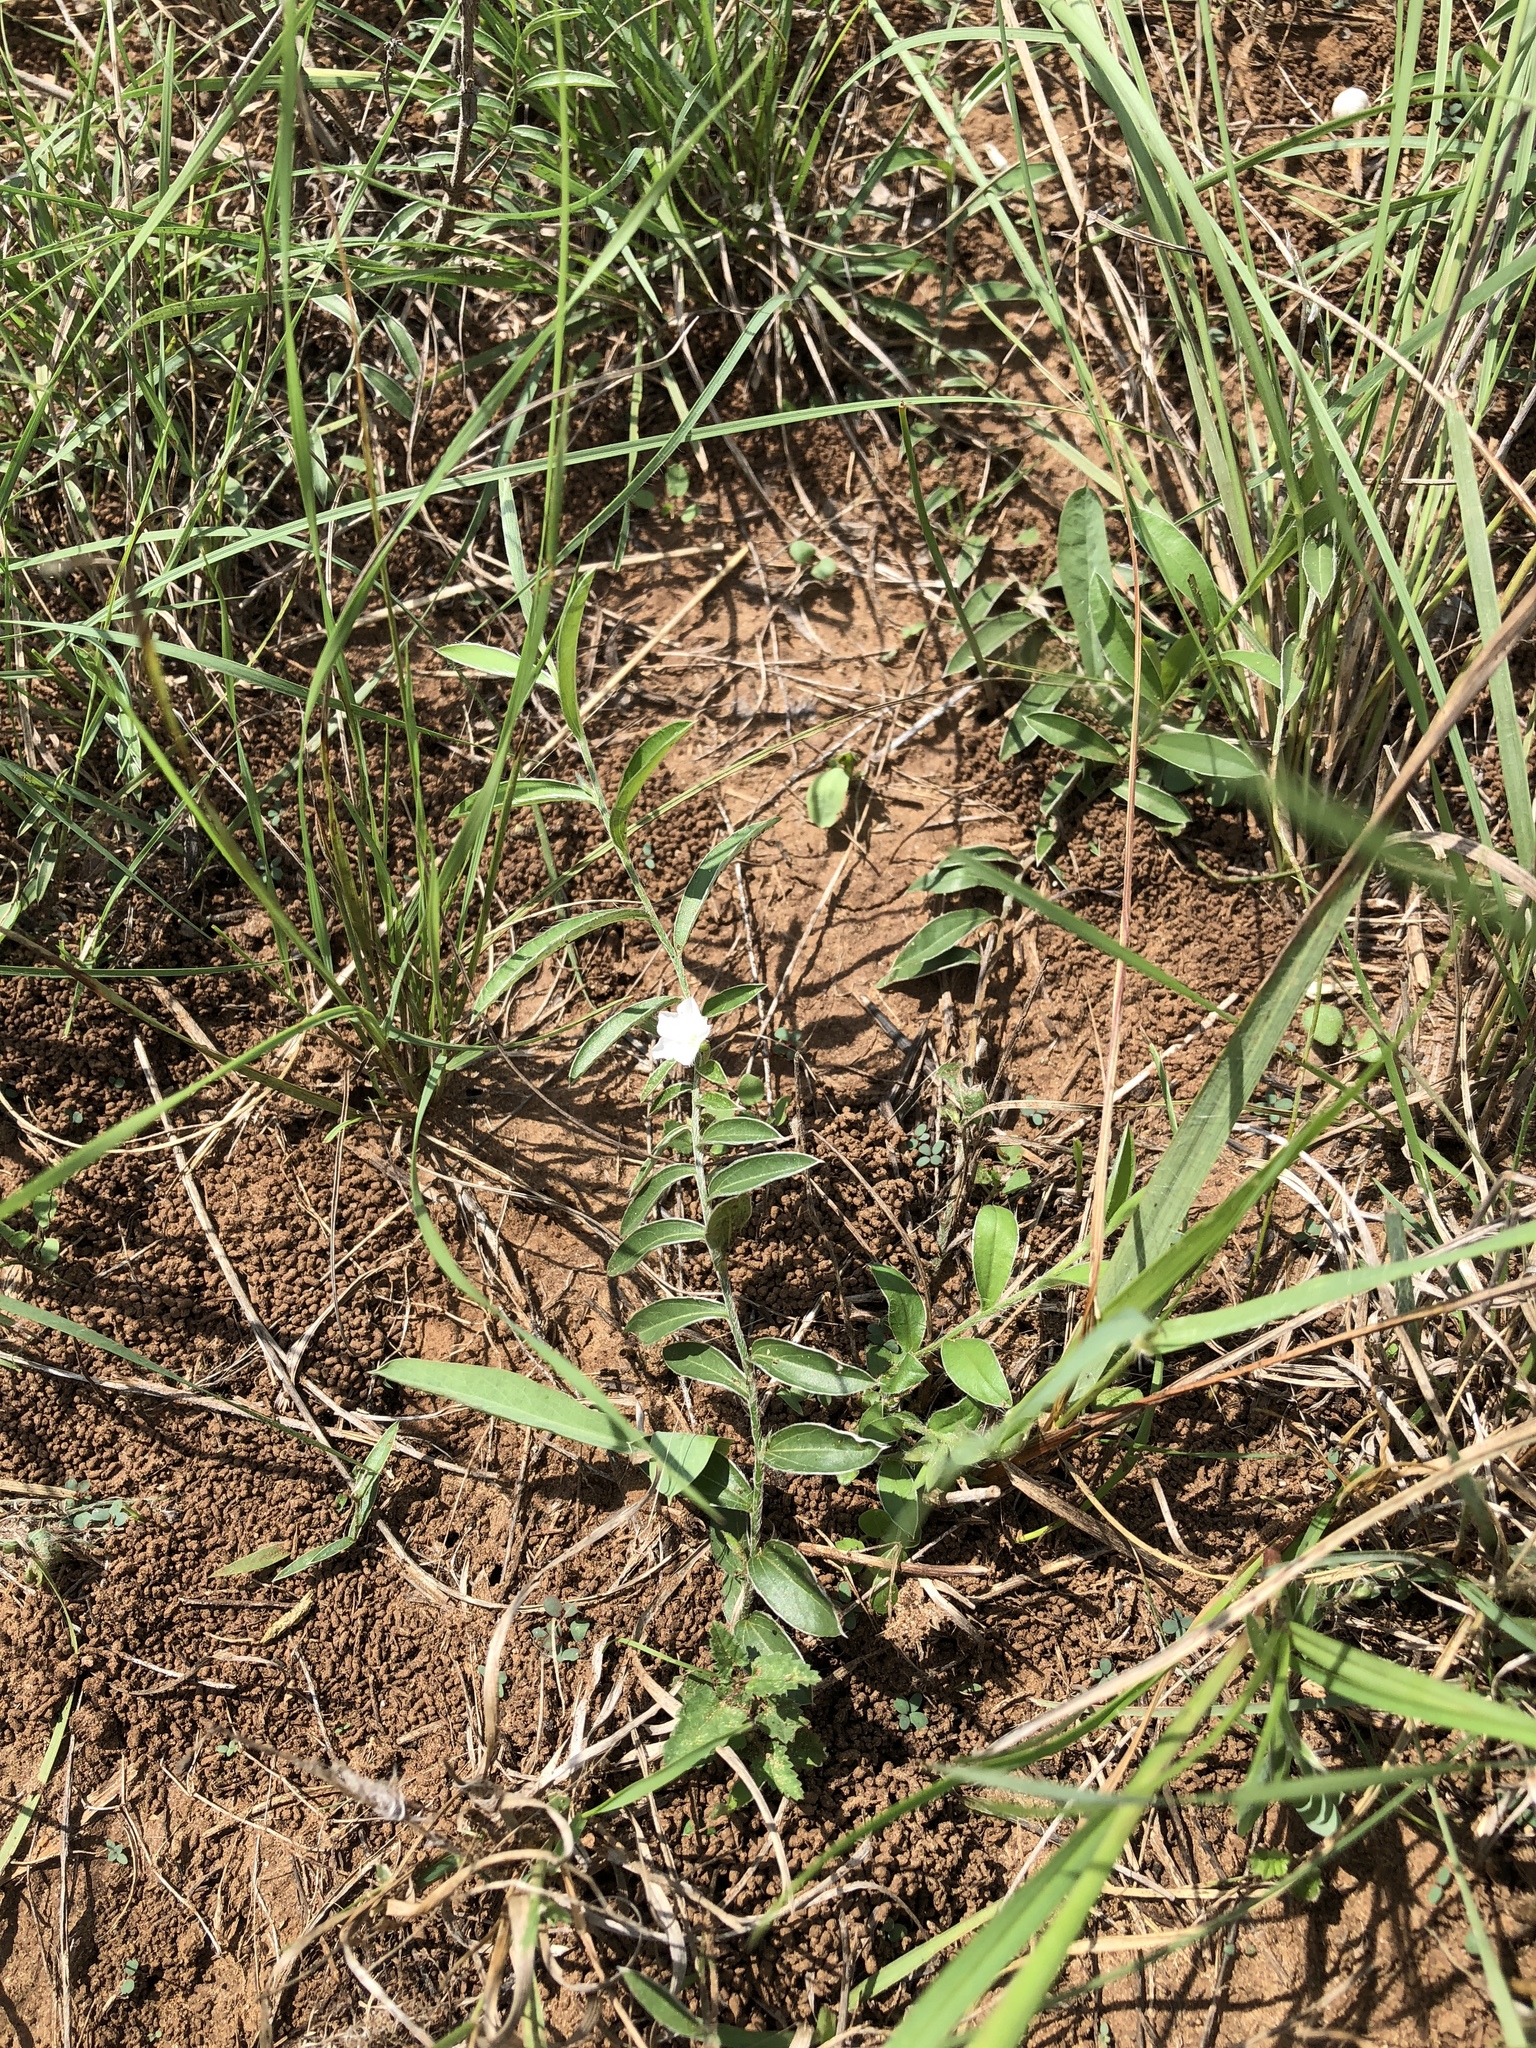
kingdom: Plantae
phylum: Tracheophyta
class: Magnoliopsida
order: Solanales
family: Convolvulaceae
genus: Evolvulus
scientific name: Evolvulus sericeus
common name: Blue dots
